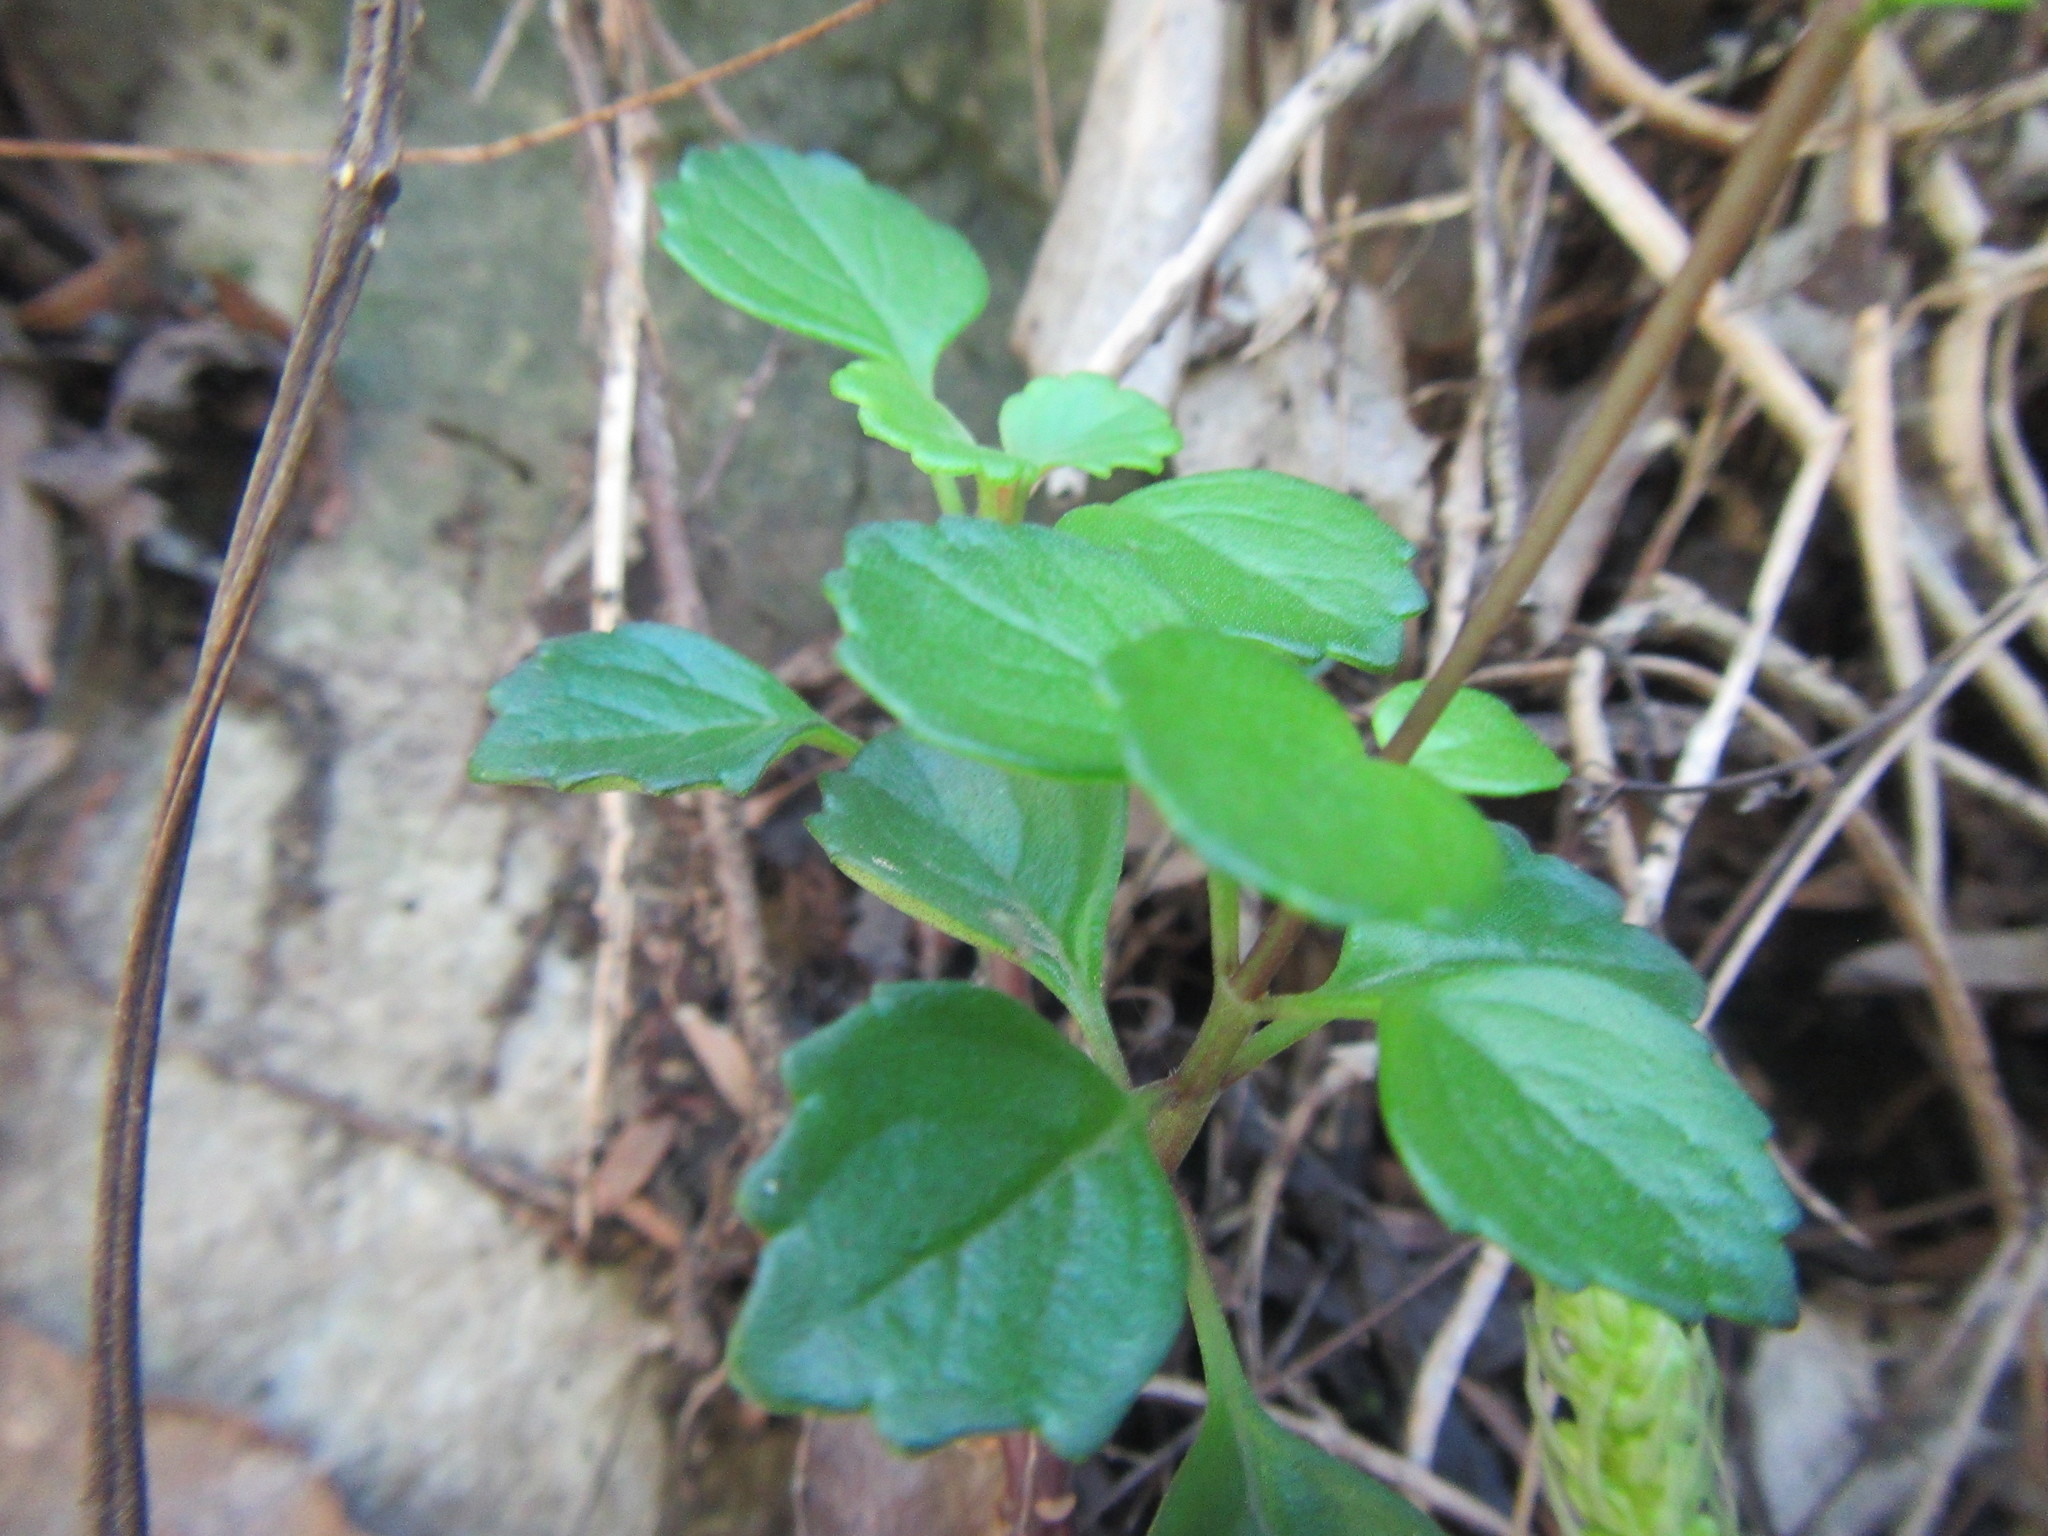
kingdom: Plantae
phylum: Tracheophyta
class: Magnoliopsida
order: Lamiales
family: Lamiaceae
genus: Plectranthus
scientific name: Plectranthus verticillatus
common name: Whorled plectranthus
